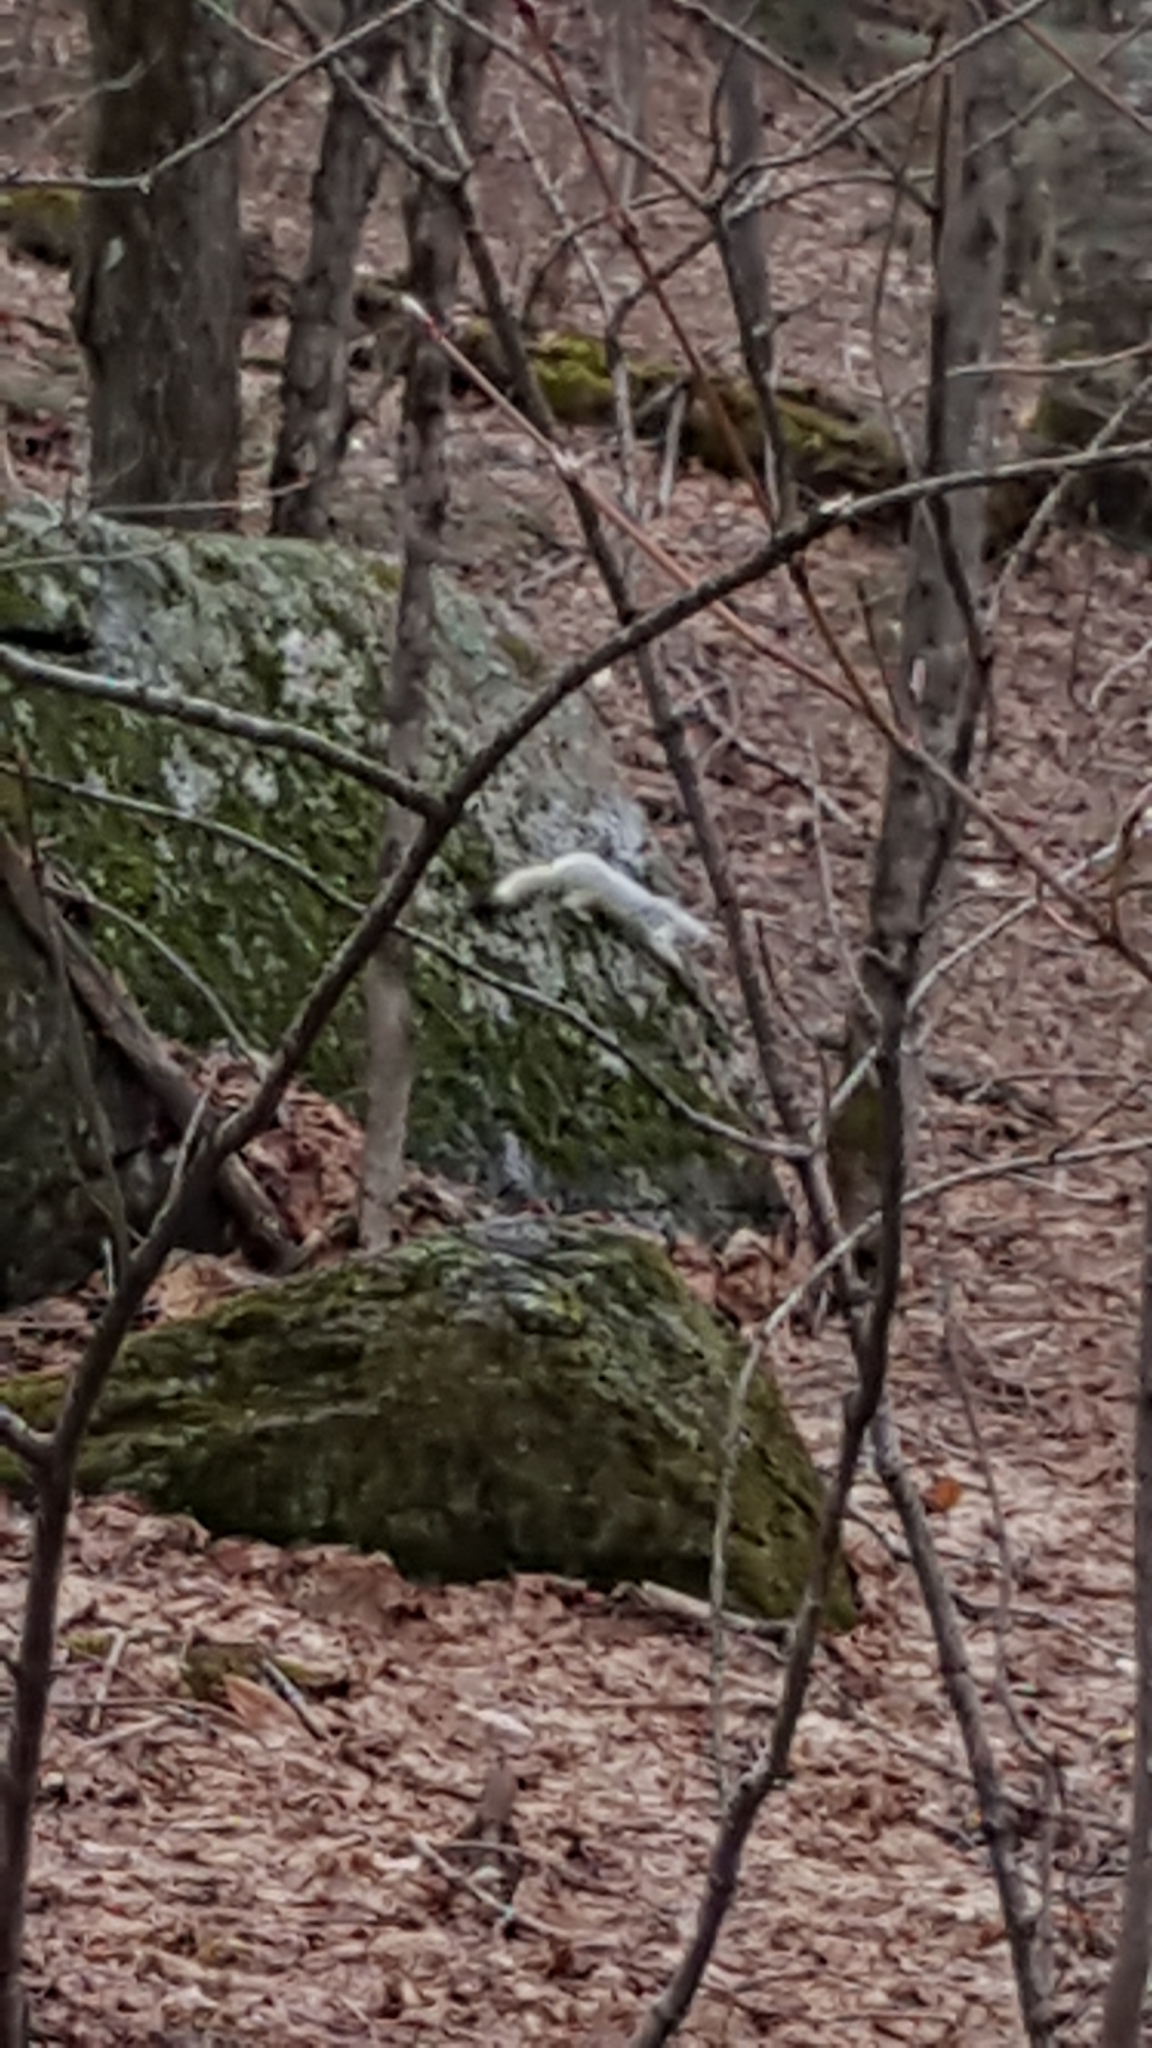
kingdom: Animalia
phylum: Chordata
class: Mammalia
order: Carnivora
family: Mustelidae
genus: Mustela
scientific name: Mustela
